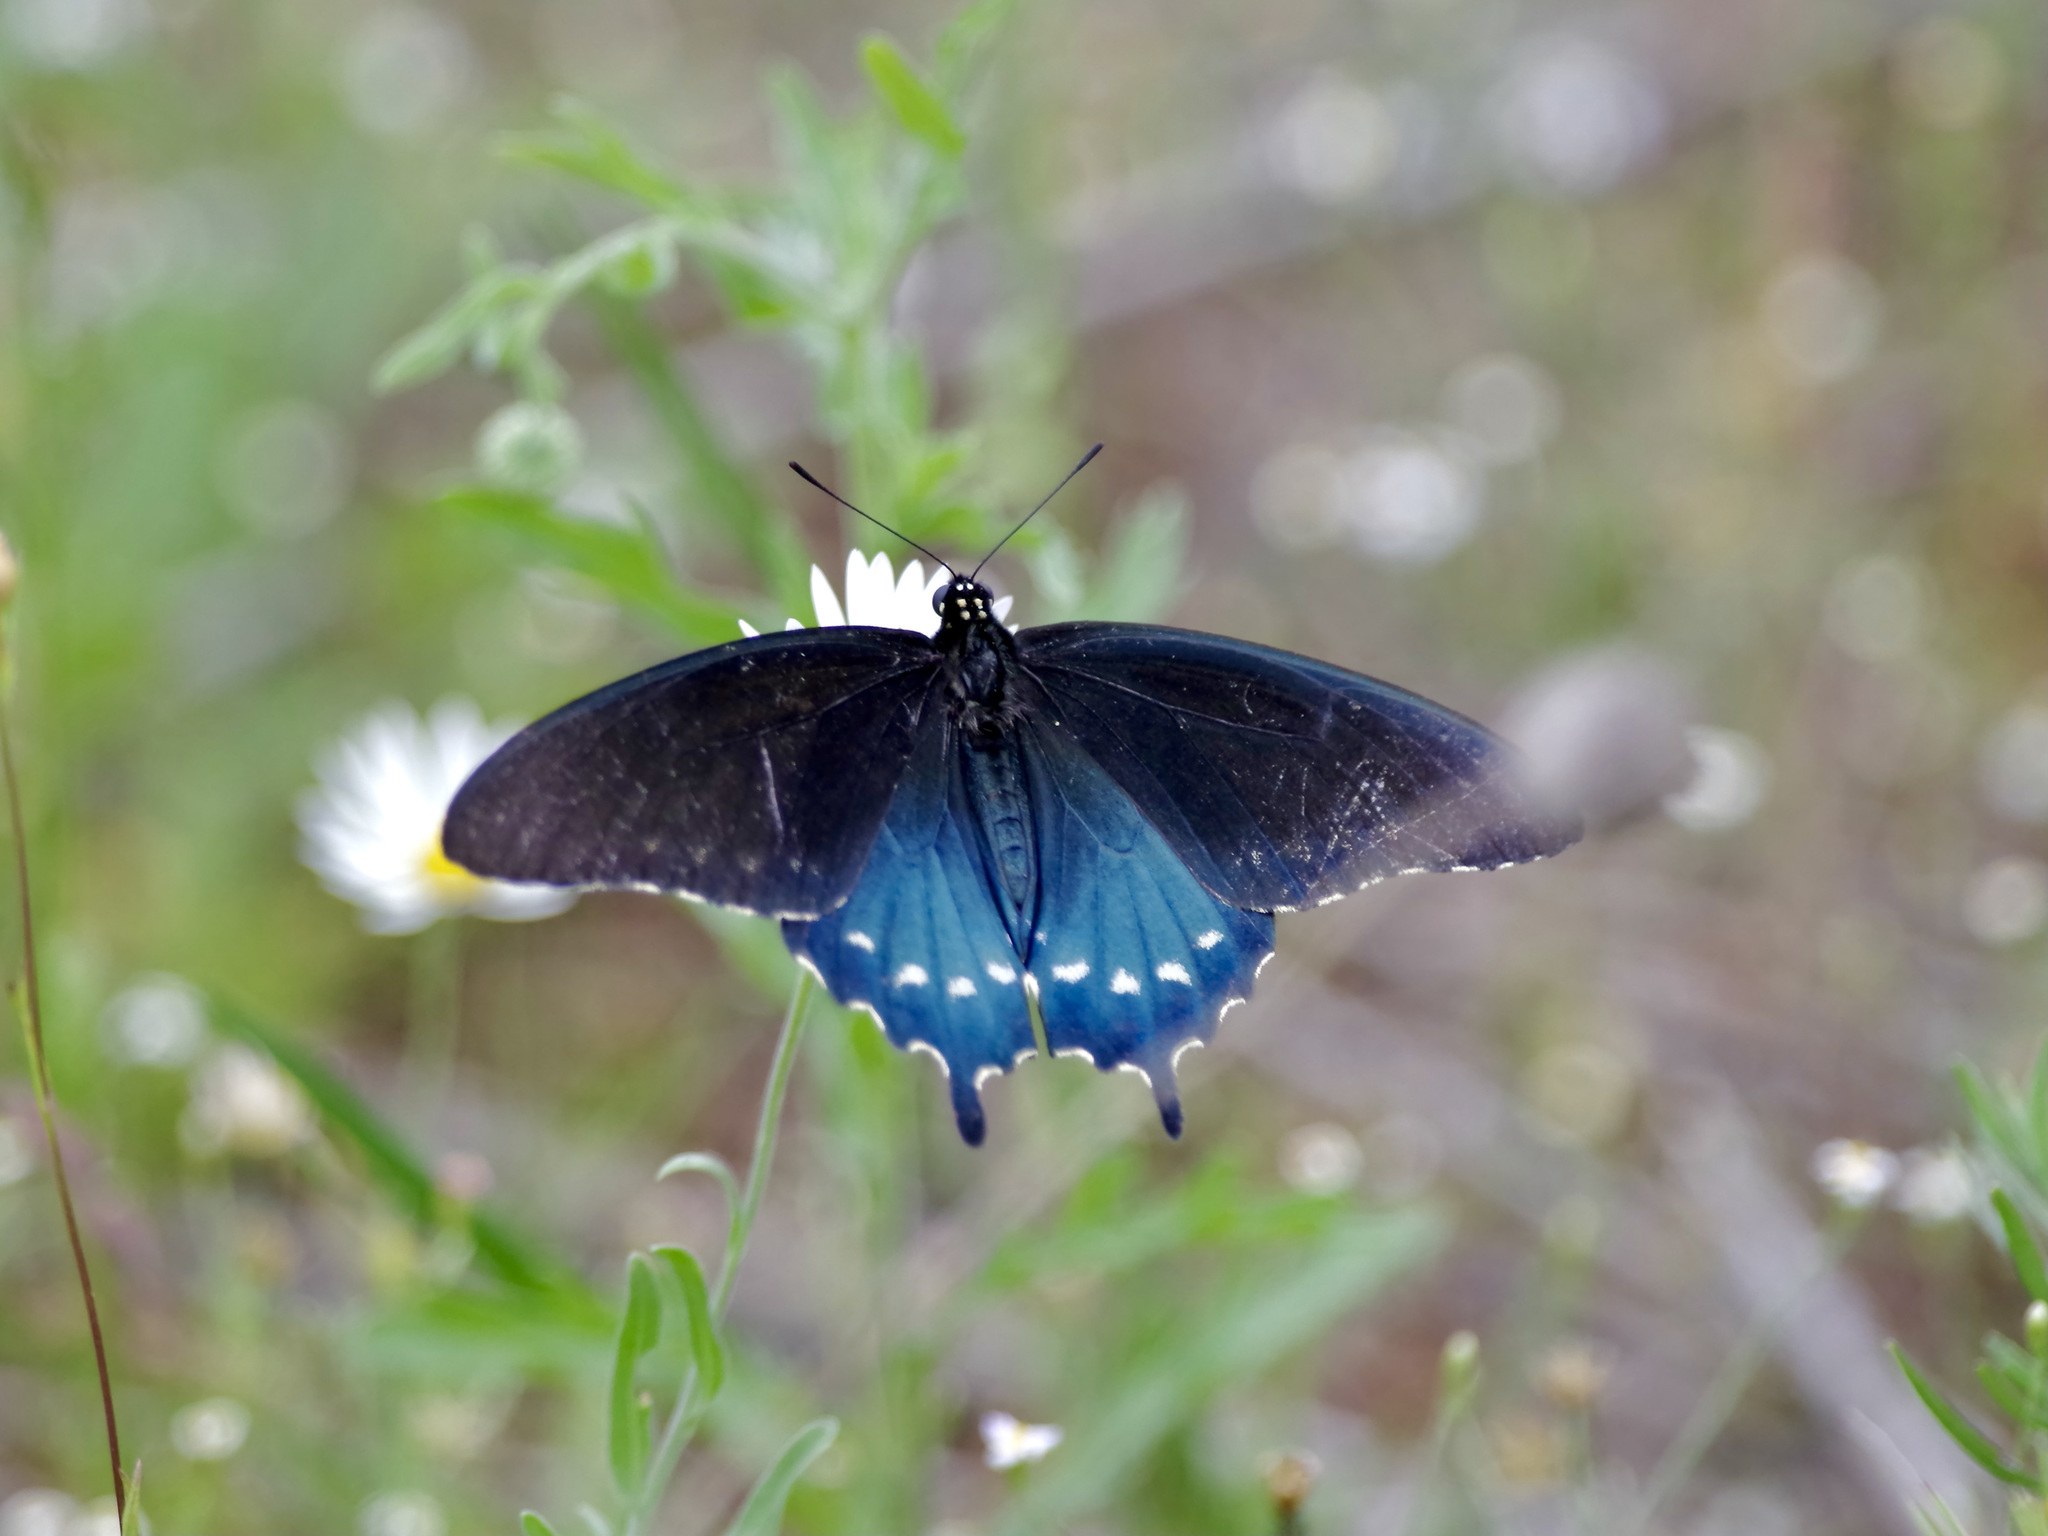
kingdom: Animalia
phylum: Arthropoda
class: Insecta
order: Lepidoptera
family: Papilionidae
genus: Battus
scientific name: Battus philenor
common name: Pipevine swallowtail
